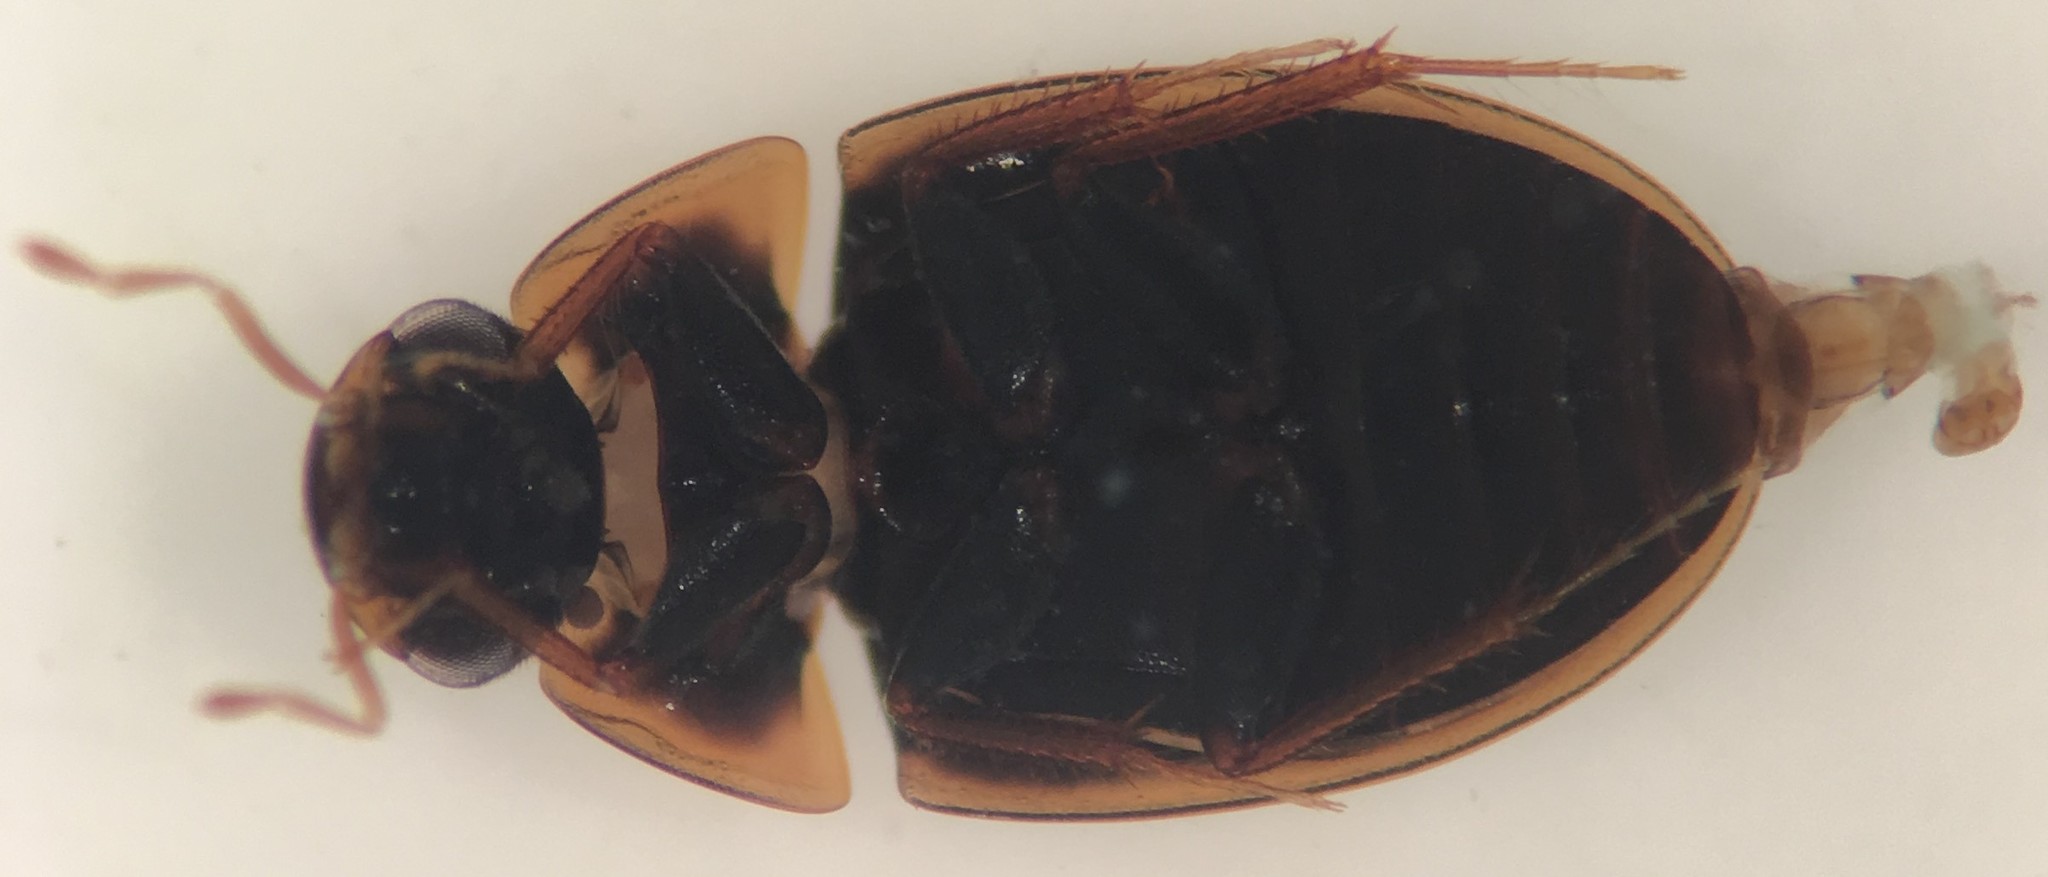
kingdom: Animalia
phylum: Arthropoda
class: Insecta
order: Coleoptera
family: Hydrophilidae
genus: Enochrus
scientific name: Enochrus ochraceus
